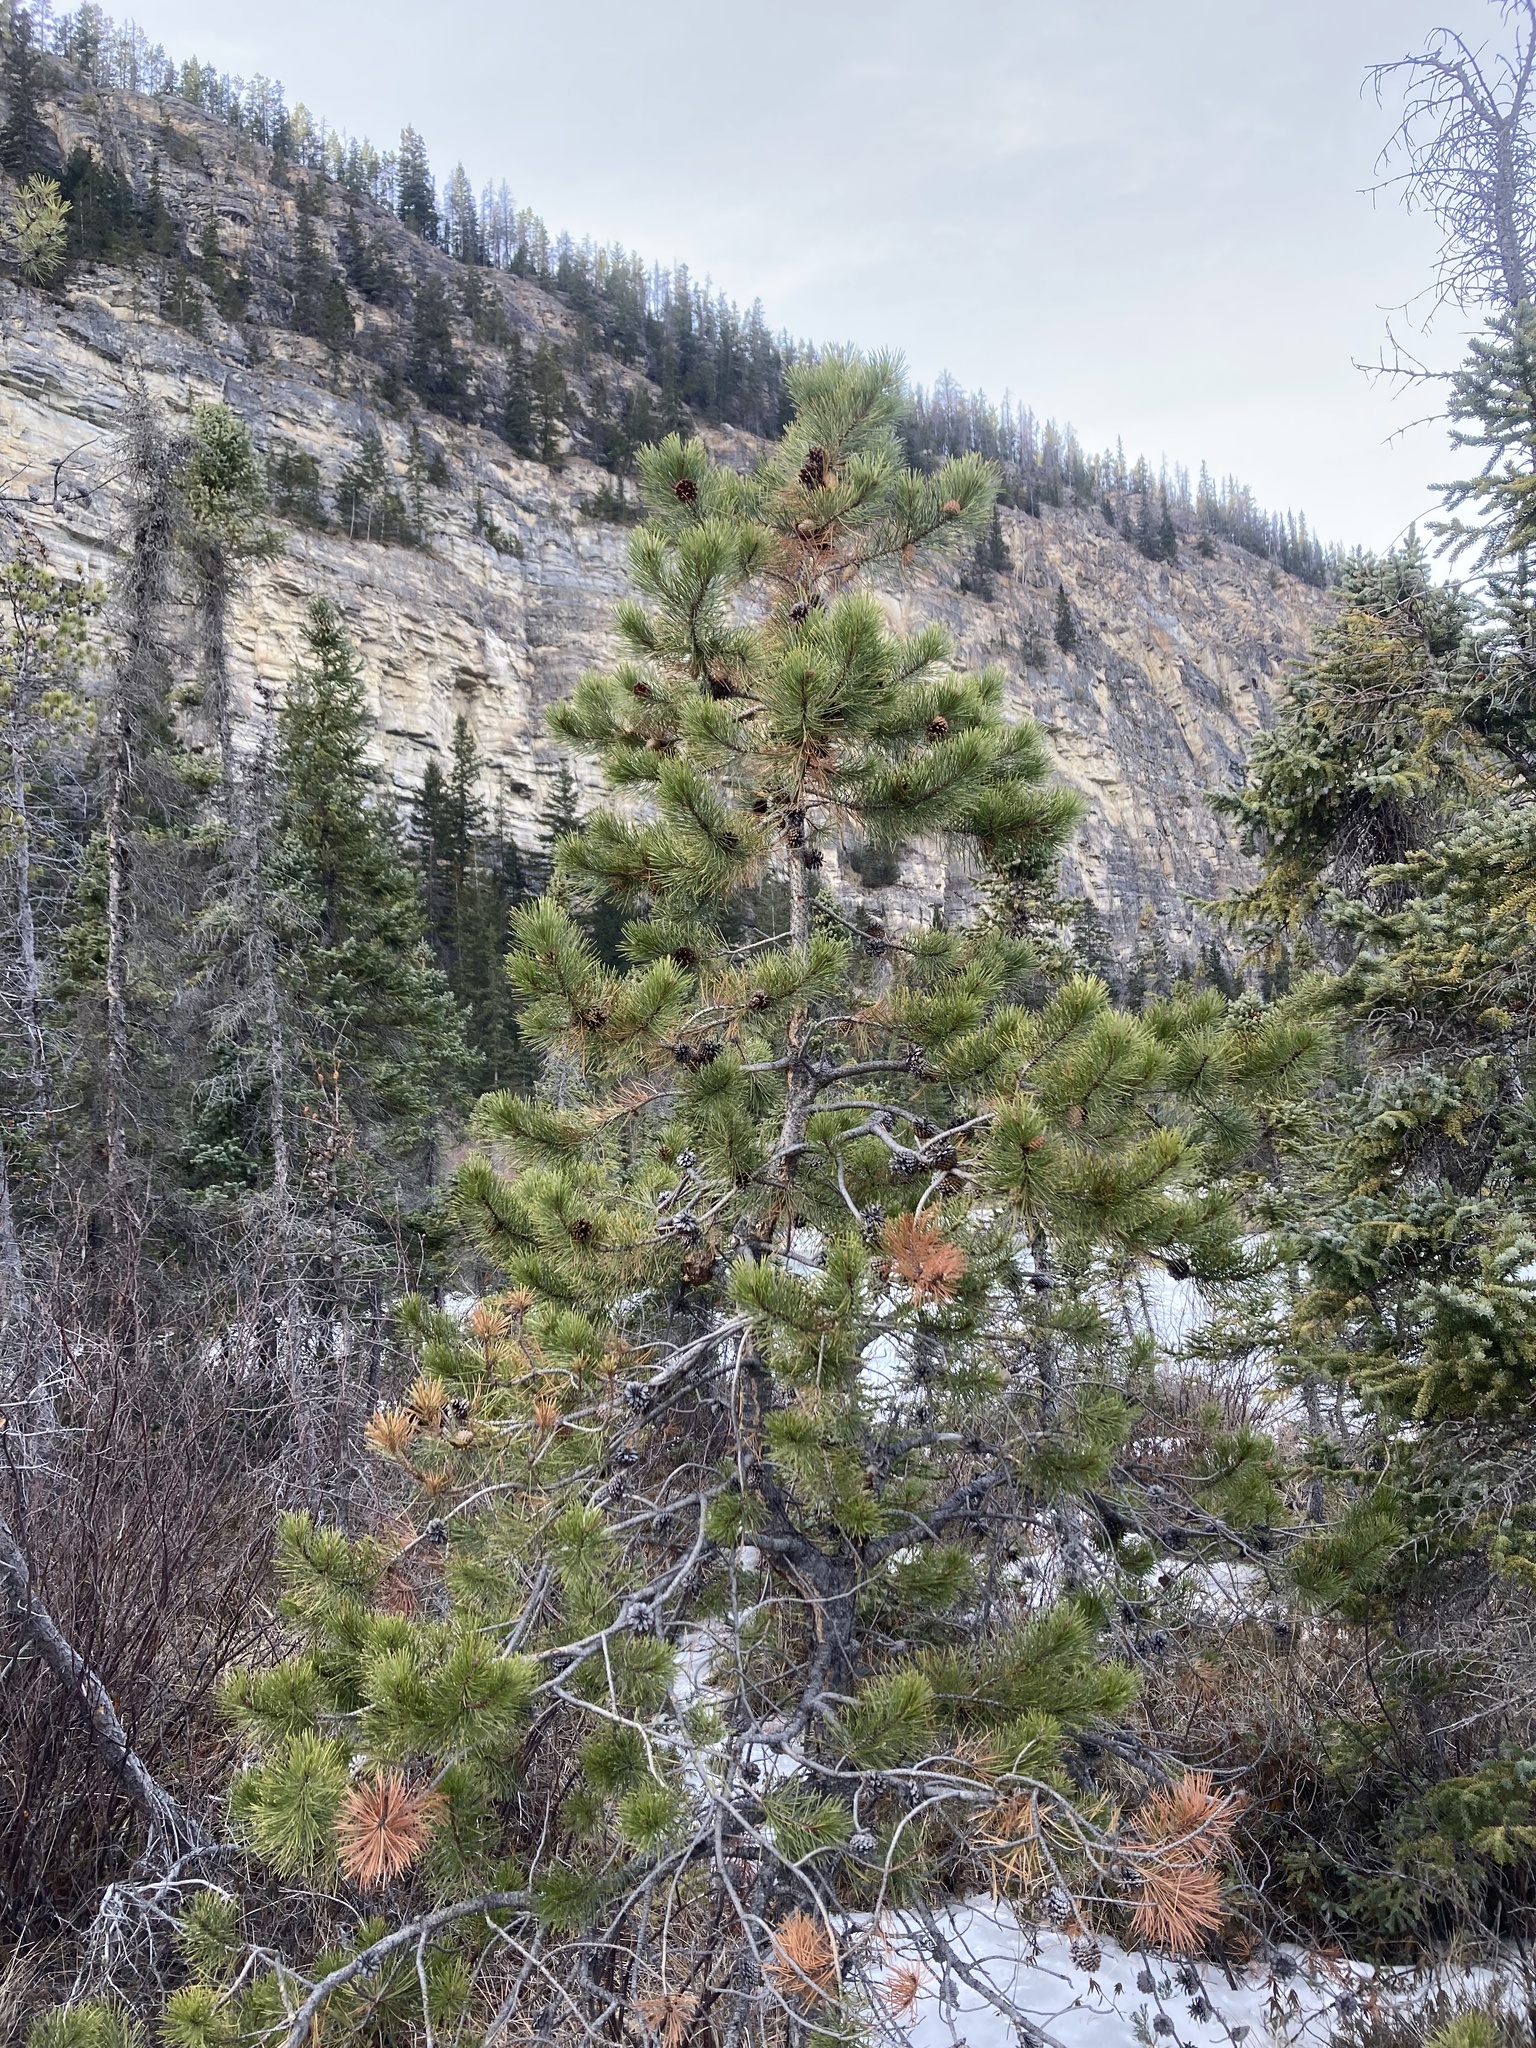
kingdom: Plantae
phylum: Tracheophyta
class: Pinopsida
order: Pinales
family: Pinaceae
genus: Pinus
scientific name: Pinus contorta
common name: Lodgepole pine
